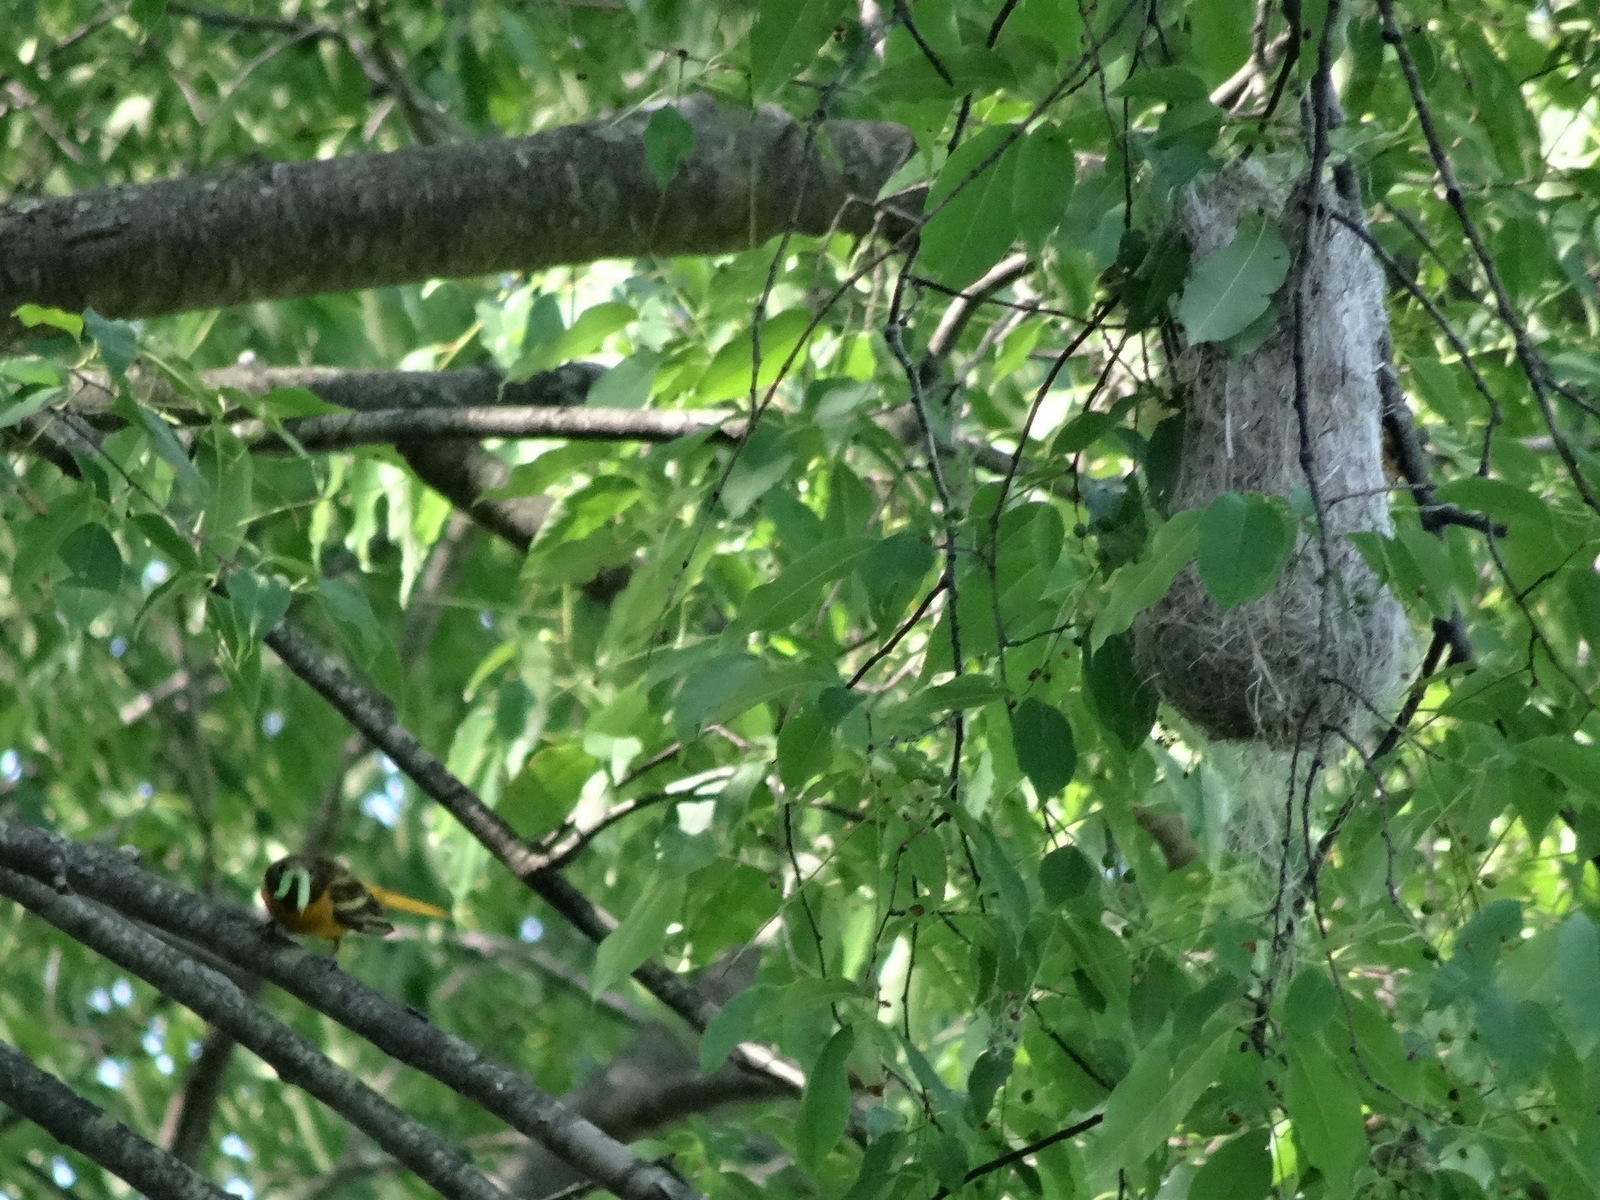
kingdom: Animalia
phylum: Chordata
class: Aves
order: Passeriformes
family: Icteridae
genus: Icterus
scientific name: Icterus galbula
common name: Baltimore oriole
